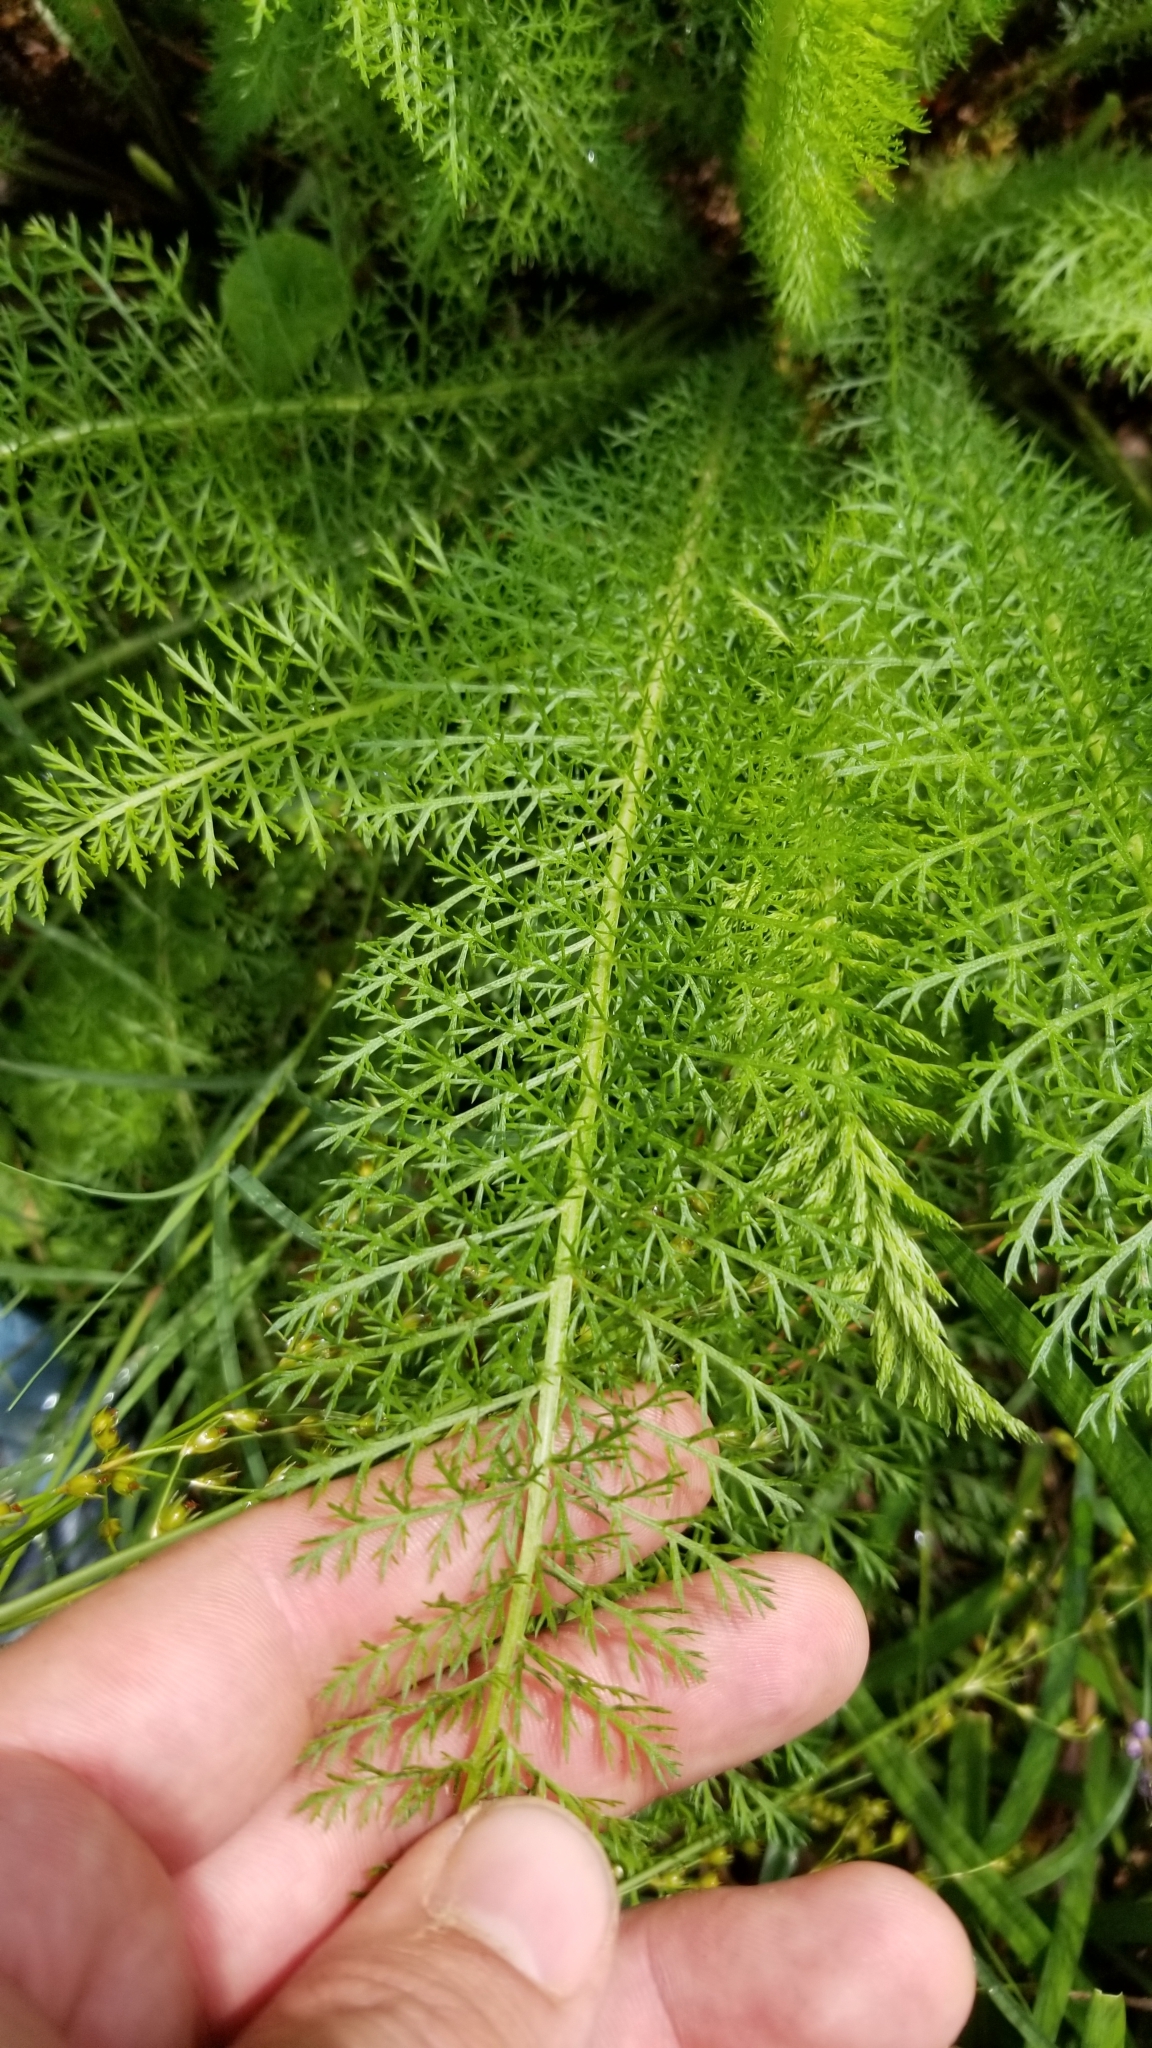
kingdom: Plantae
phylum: Tracheophyta
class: Magnoliopsida
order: Asterales
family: Asteraceae
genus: Achillea
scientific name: Achillea millefolium
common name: Yarrow
